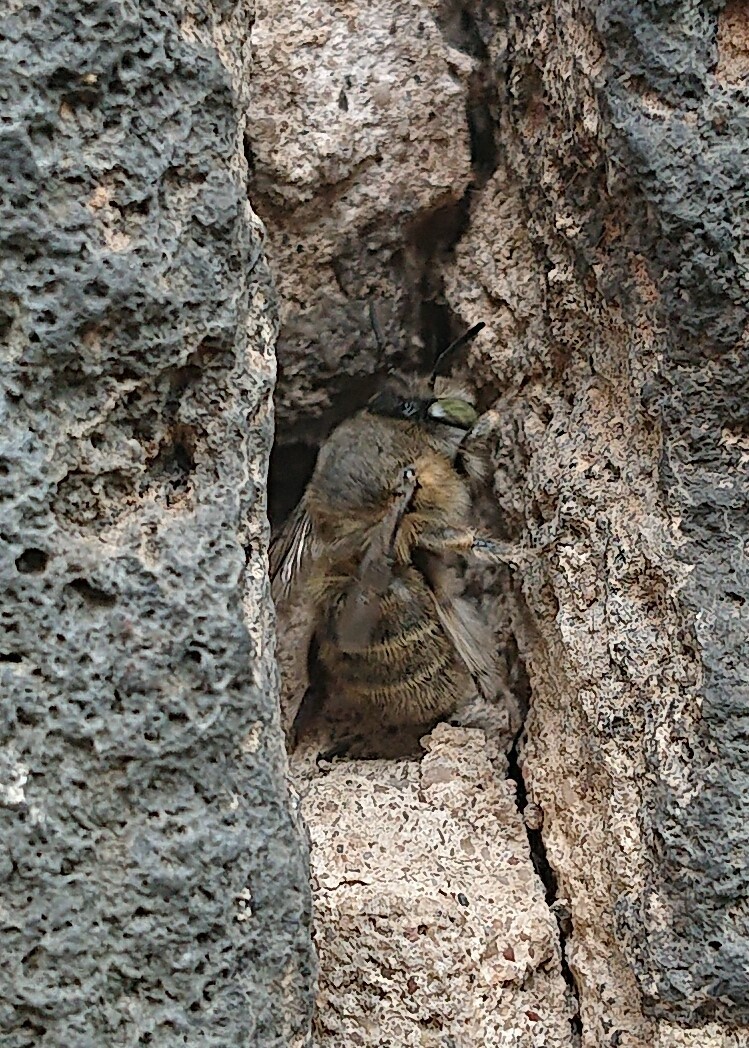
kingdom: Animalia
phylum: Arthropoda
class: Insecta
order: Hymenoptera
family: Apidae
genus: Anthophora
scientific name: Anthophora quadrimaculata
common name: Four-banded flower bee
